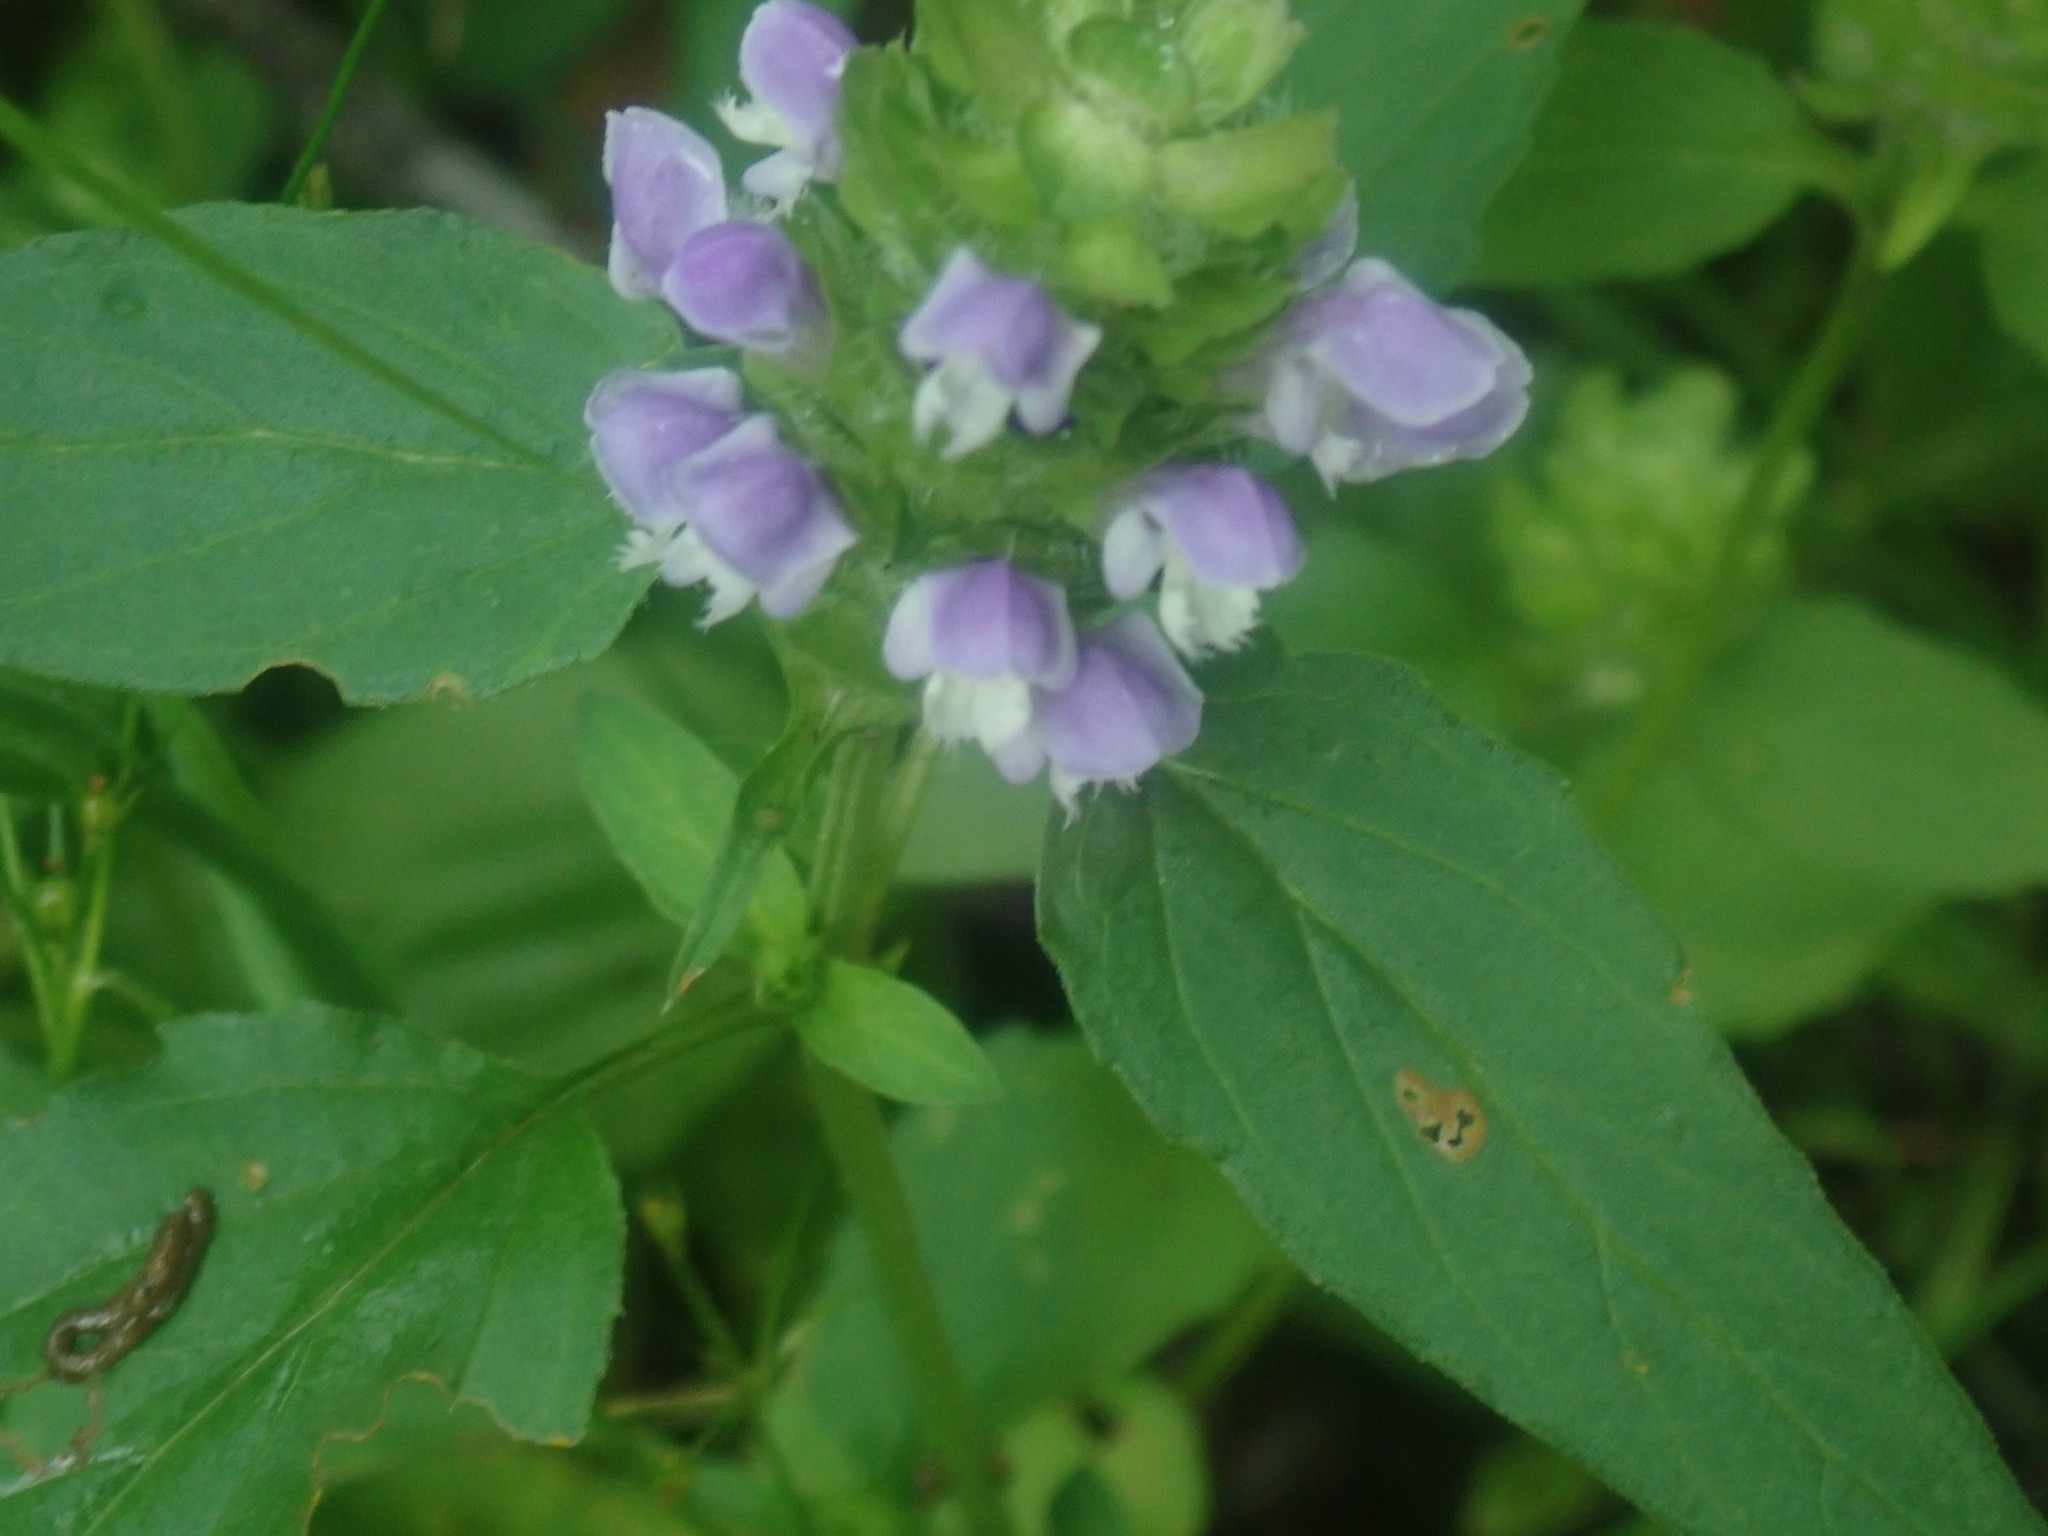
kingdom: Plantae
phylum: Tracheophyta
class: Magnoliopsida
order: Lamiales
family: Lamiaceae
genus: Prunella
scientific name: Prunella vulgaris
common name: Heal-all
